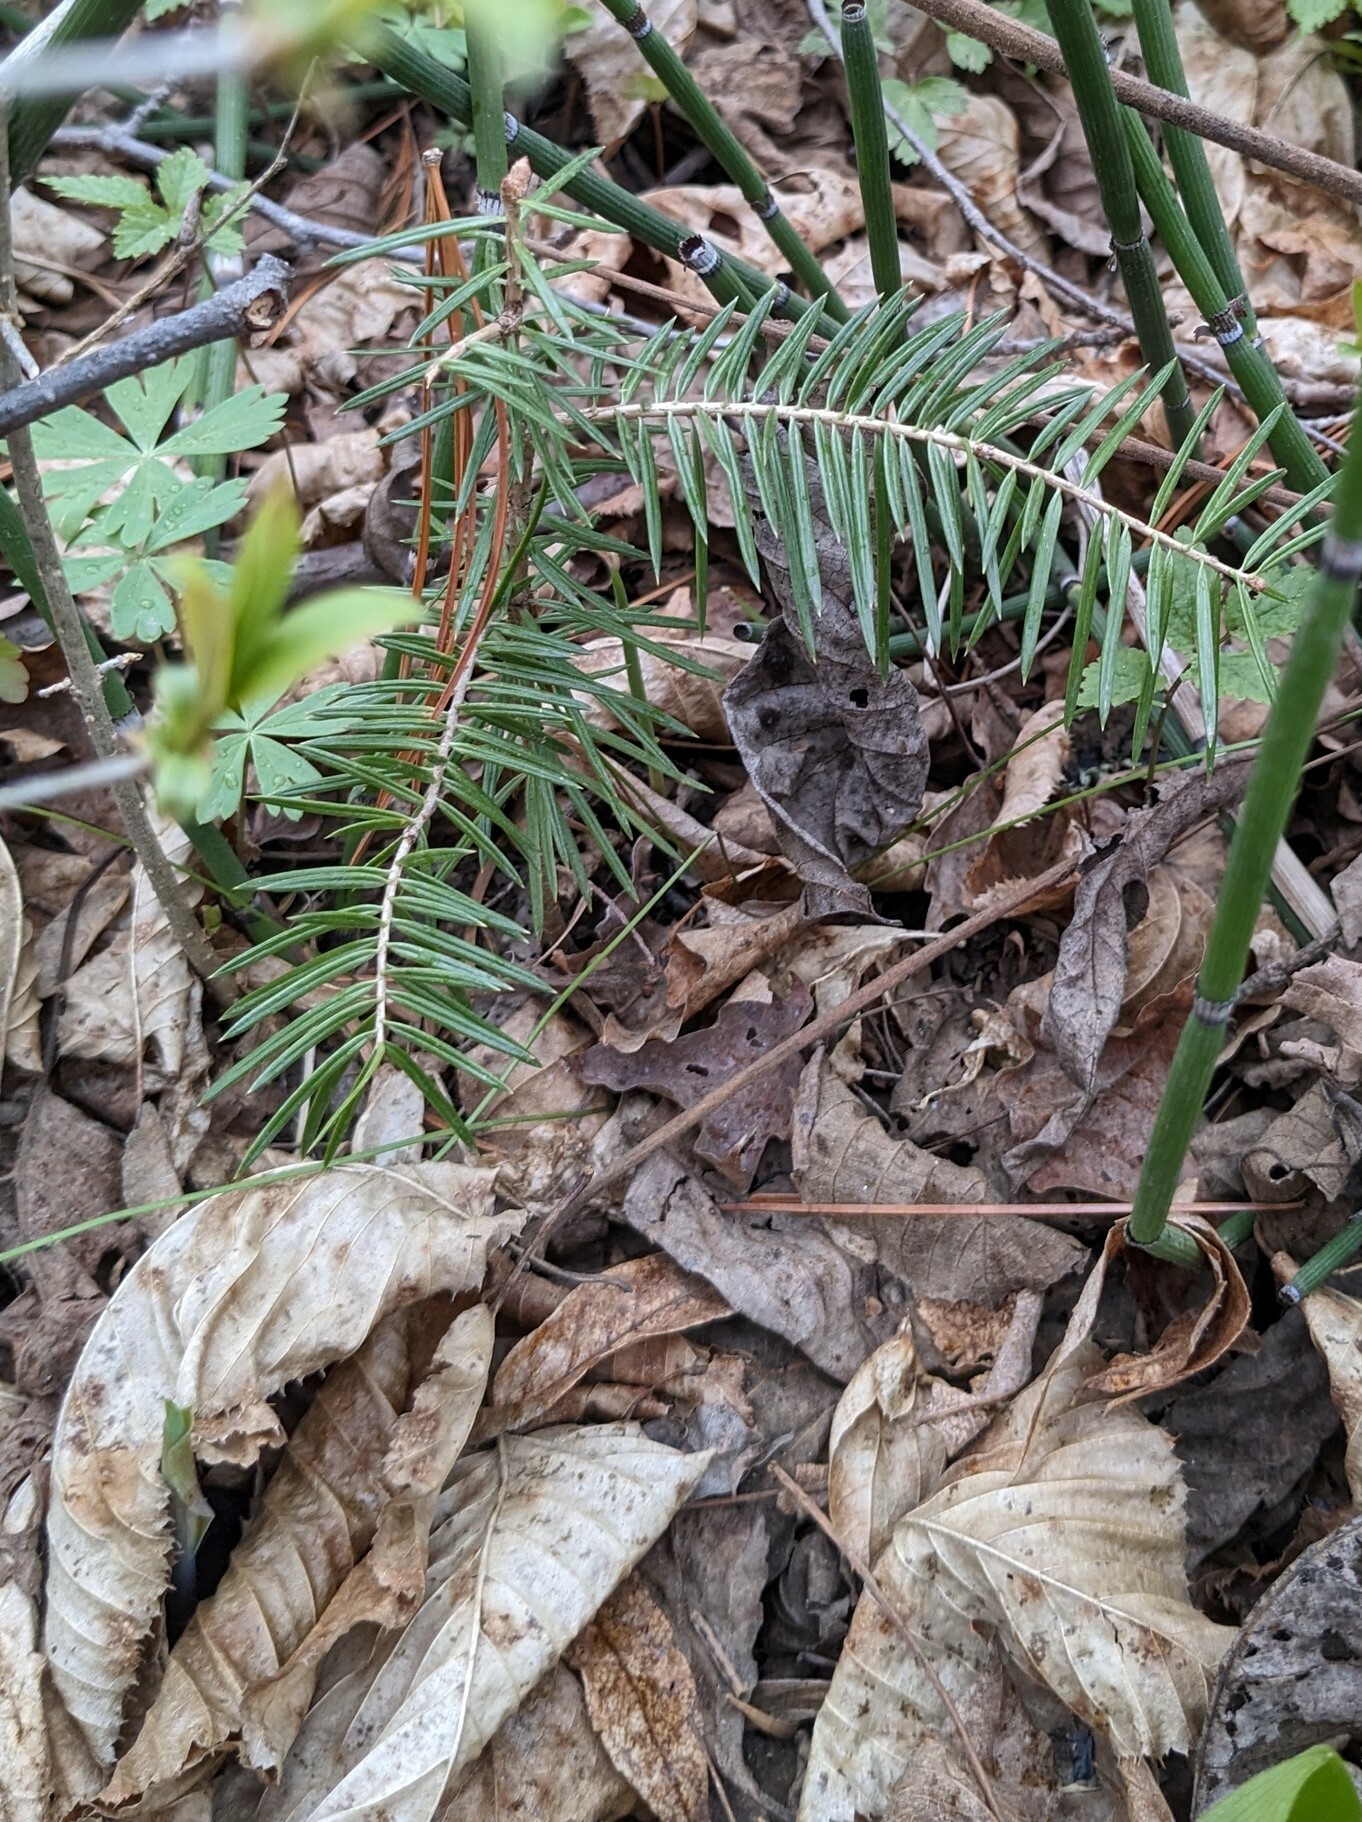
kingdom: Plantae
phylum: Tracheophyta
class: Pinopsida
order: Pinales
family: Pinaceae
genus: Abies
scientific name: Abies holophylla
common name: Manchurian fir
